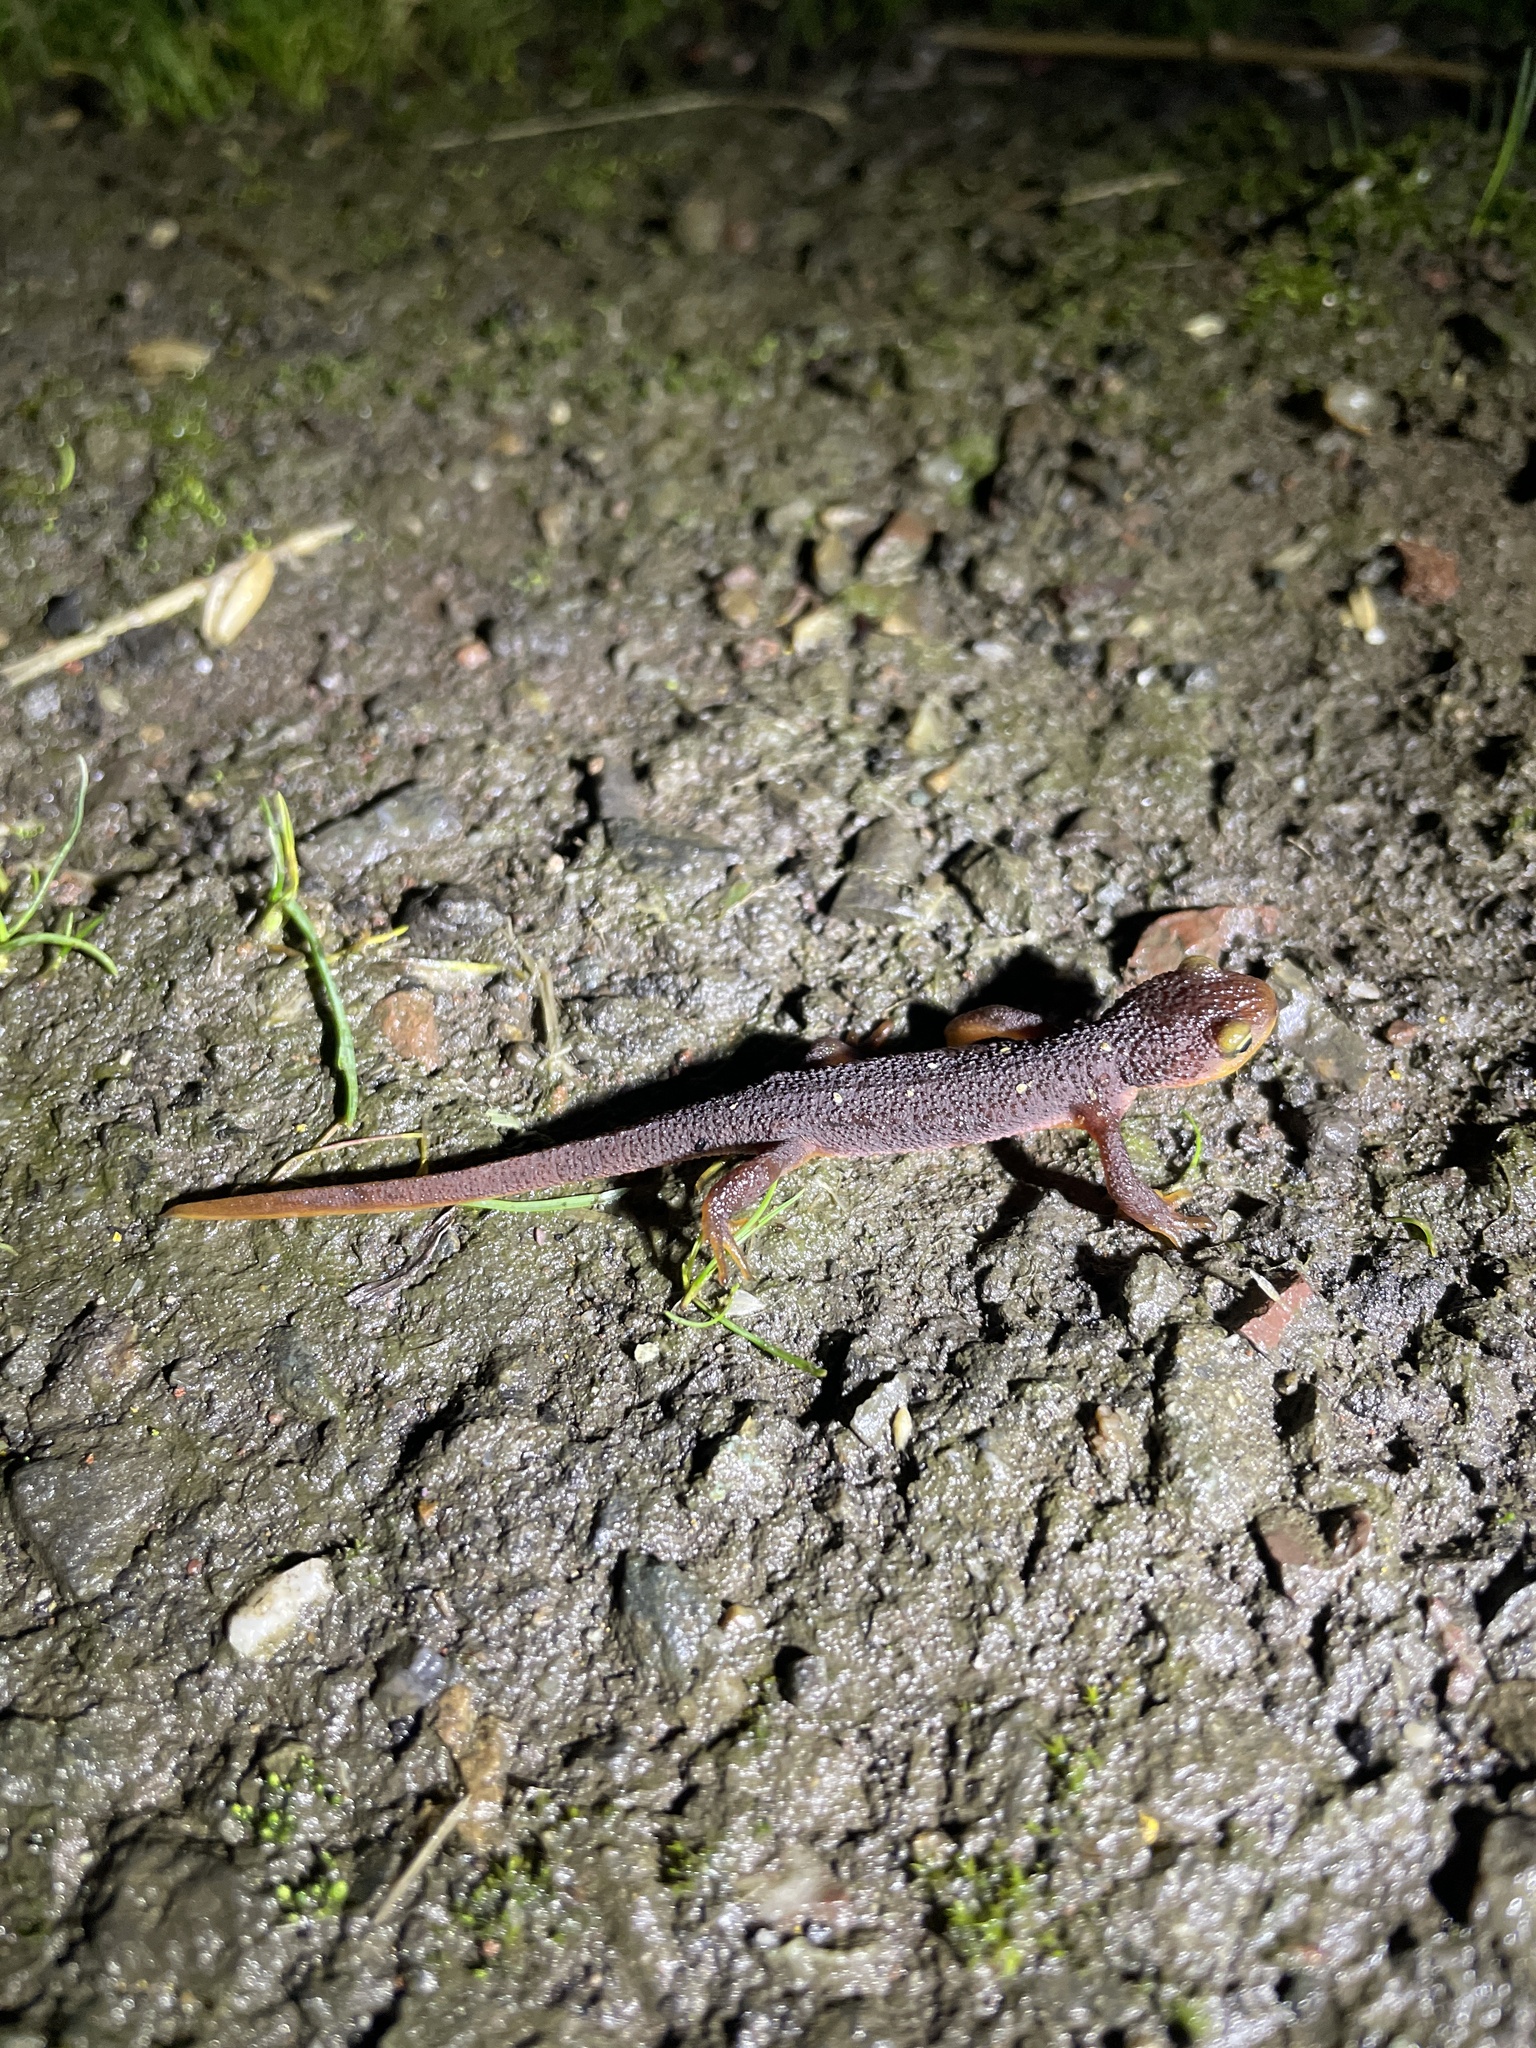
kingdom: Animalia
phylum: Chordata
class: Amphibia
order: Caudata
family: Salamandridae
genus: Taricha
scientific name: Taricha torosa
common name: California newt
